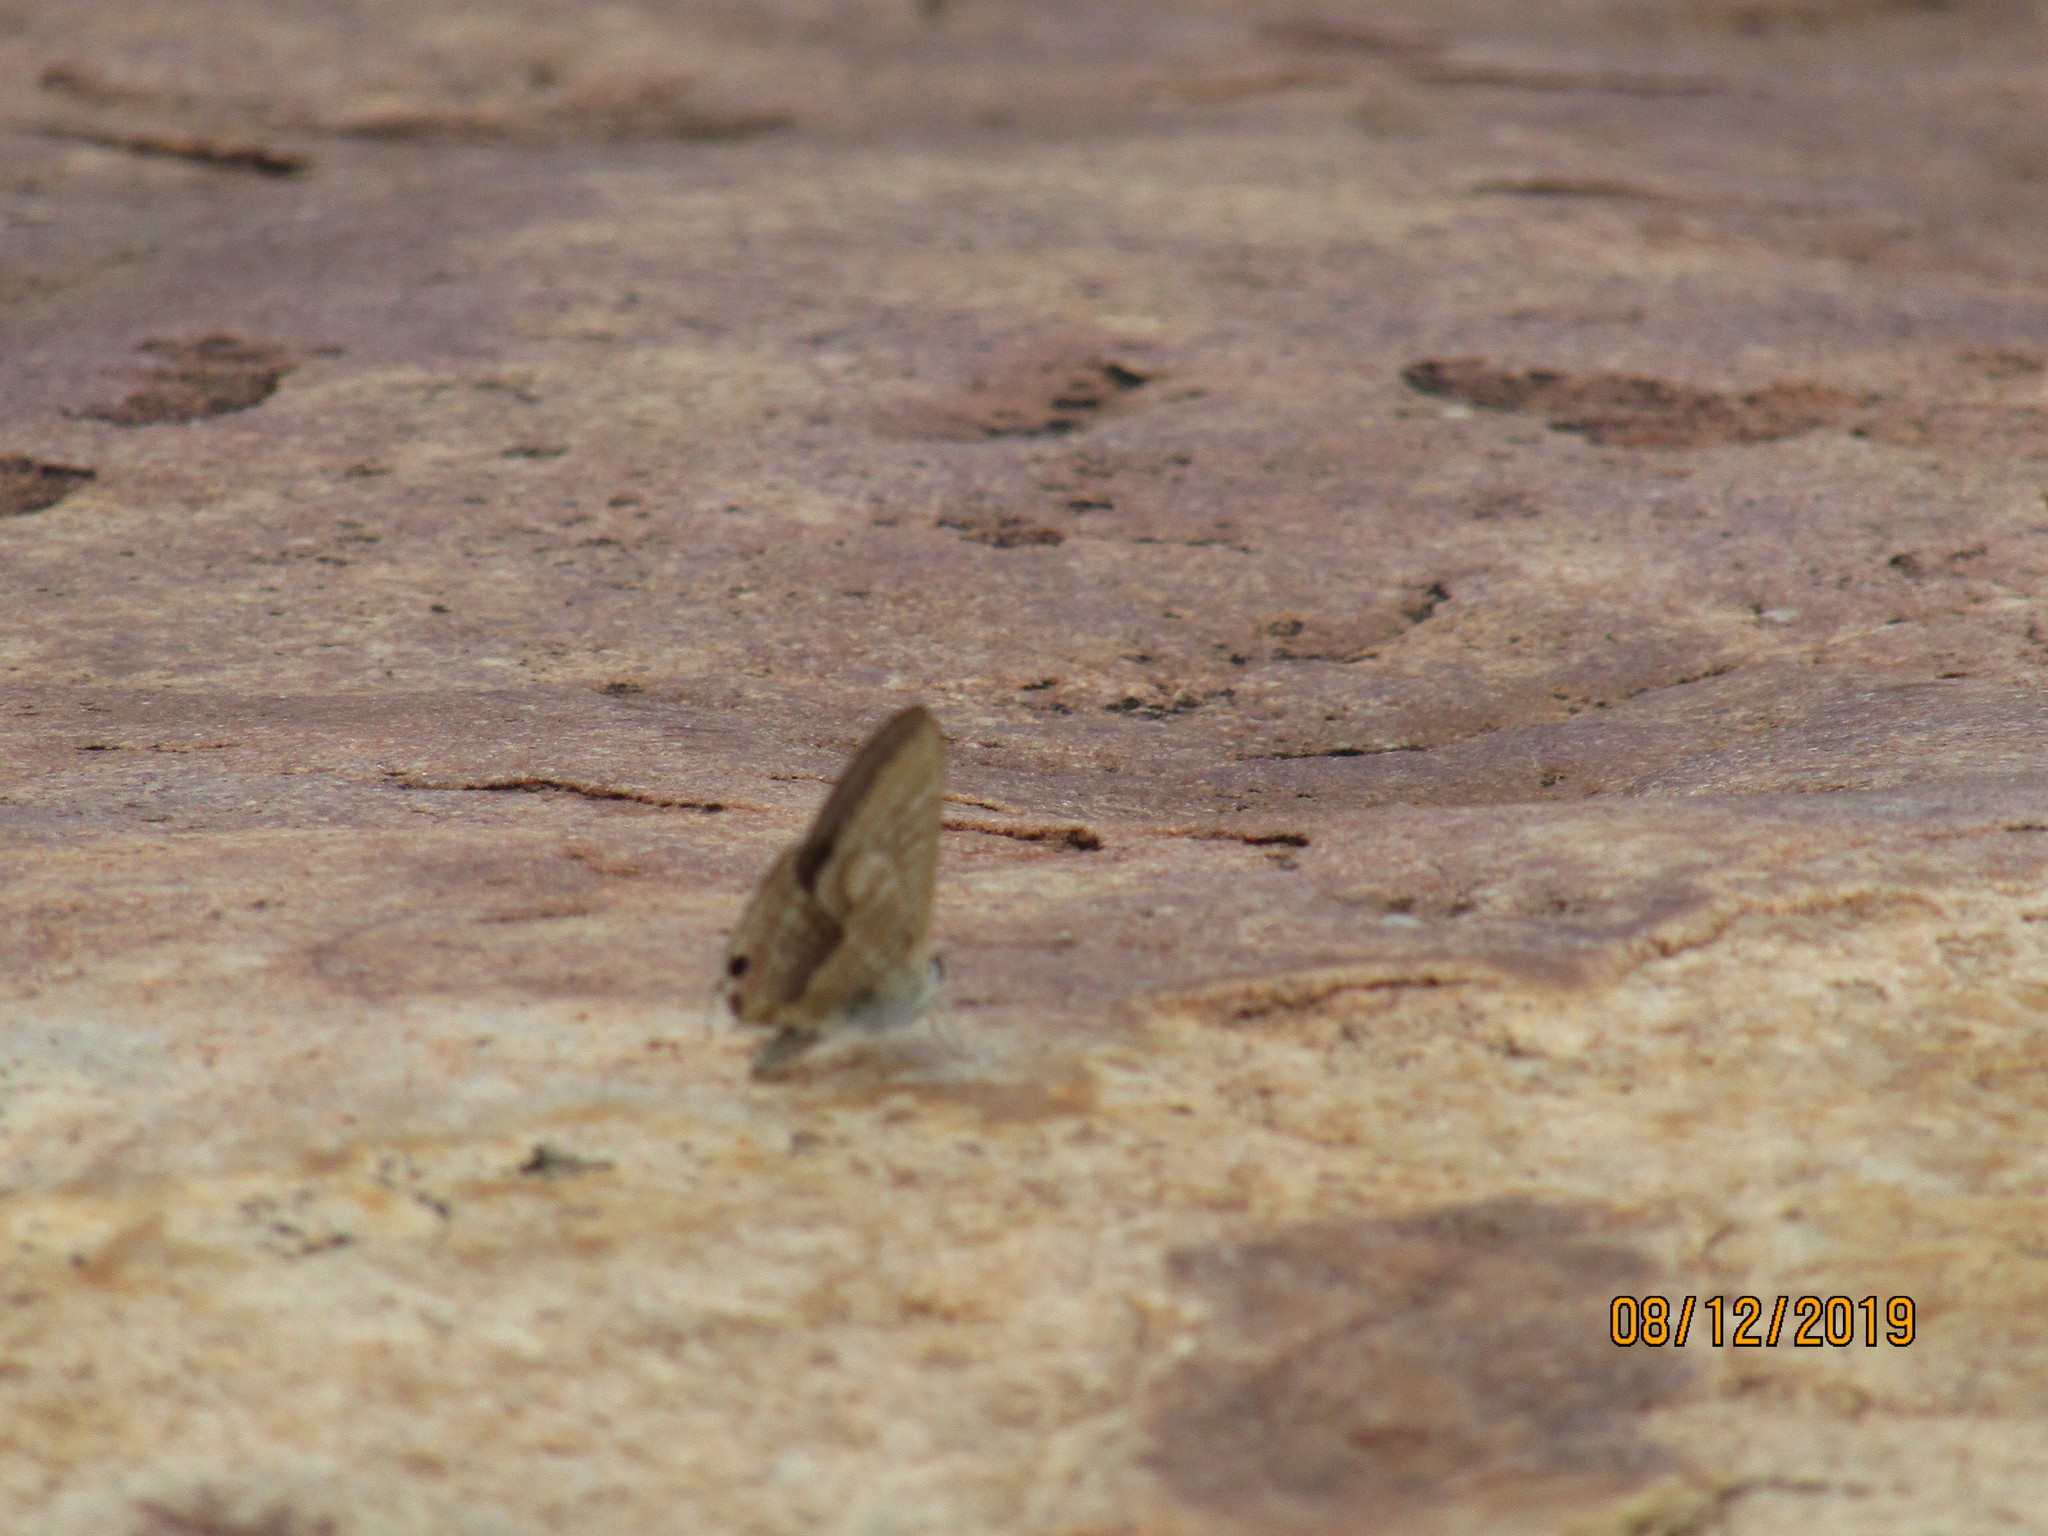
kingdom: Animalia
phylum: Arthropoda
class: Insecta
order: Lepidoptera
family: Lycaenidae
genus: Lampides
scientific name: Lampides boeticus
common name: Long-tailed blue
